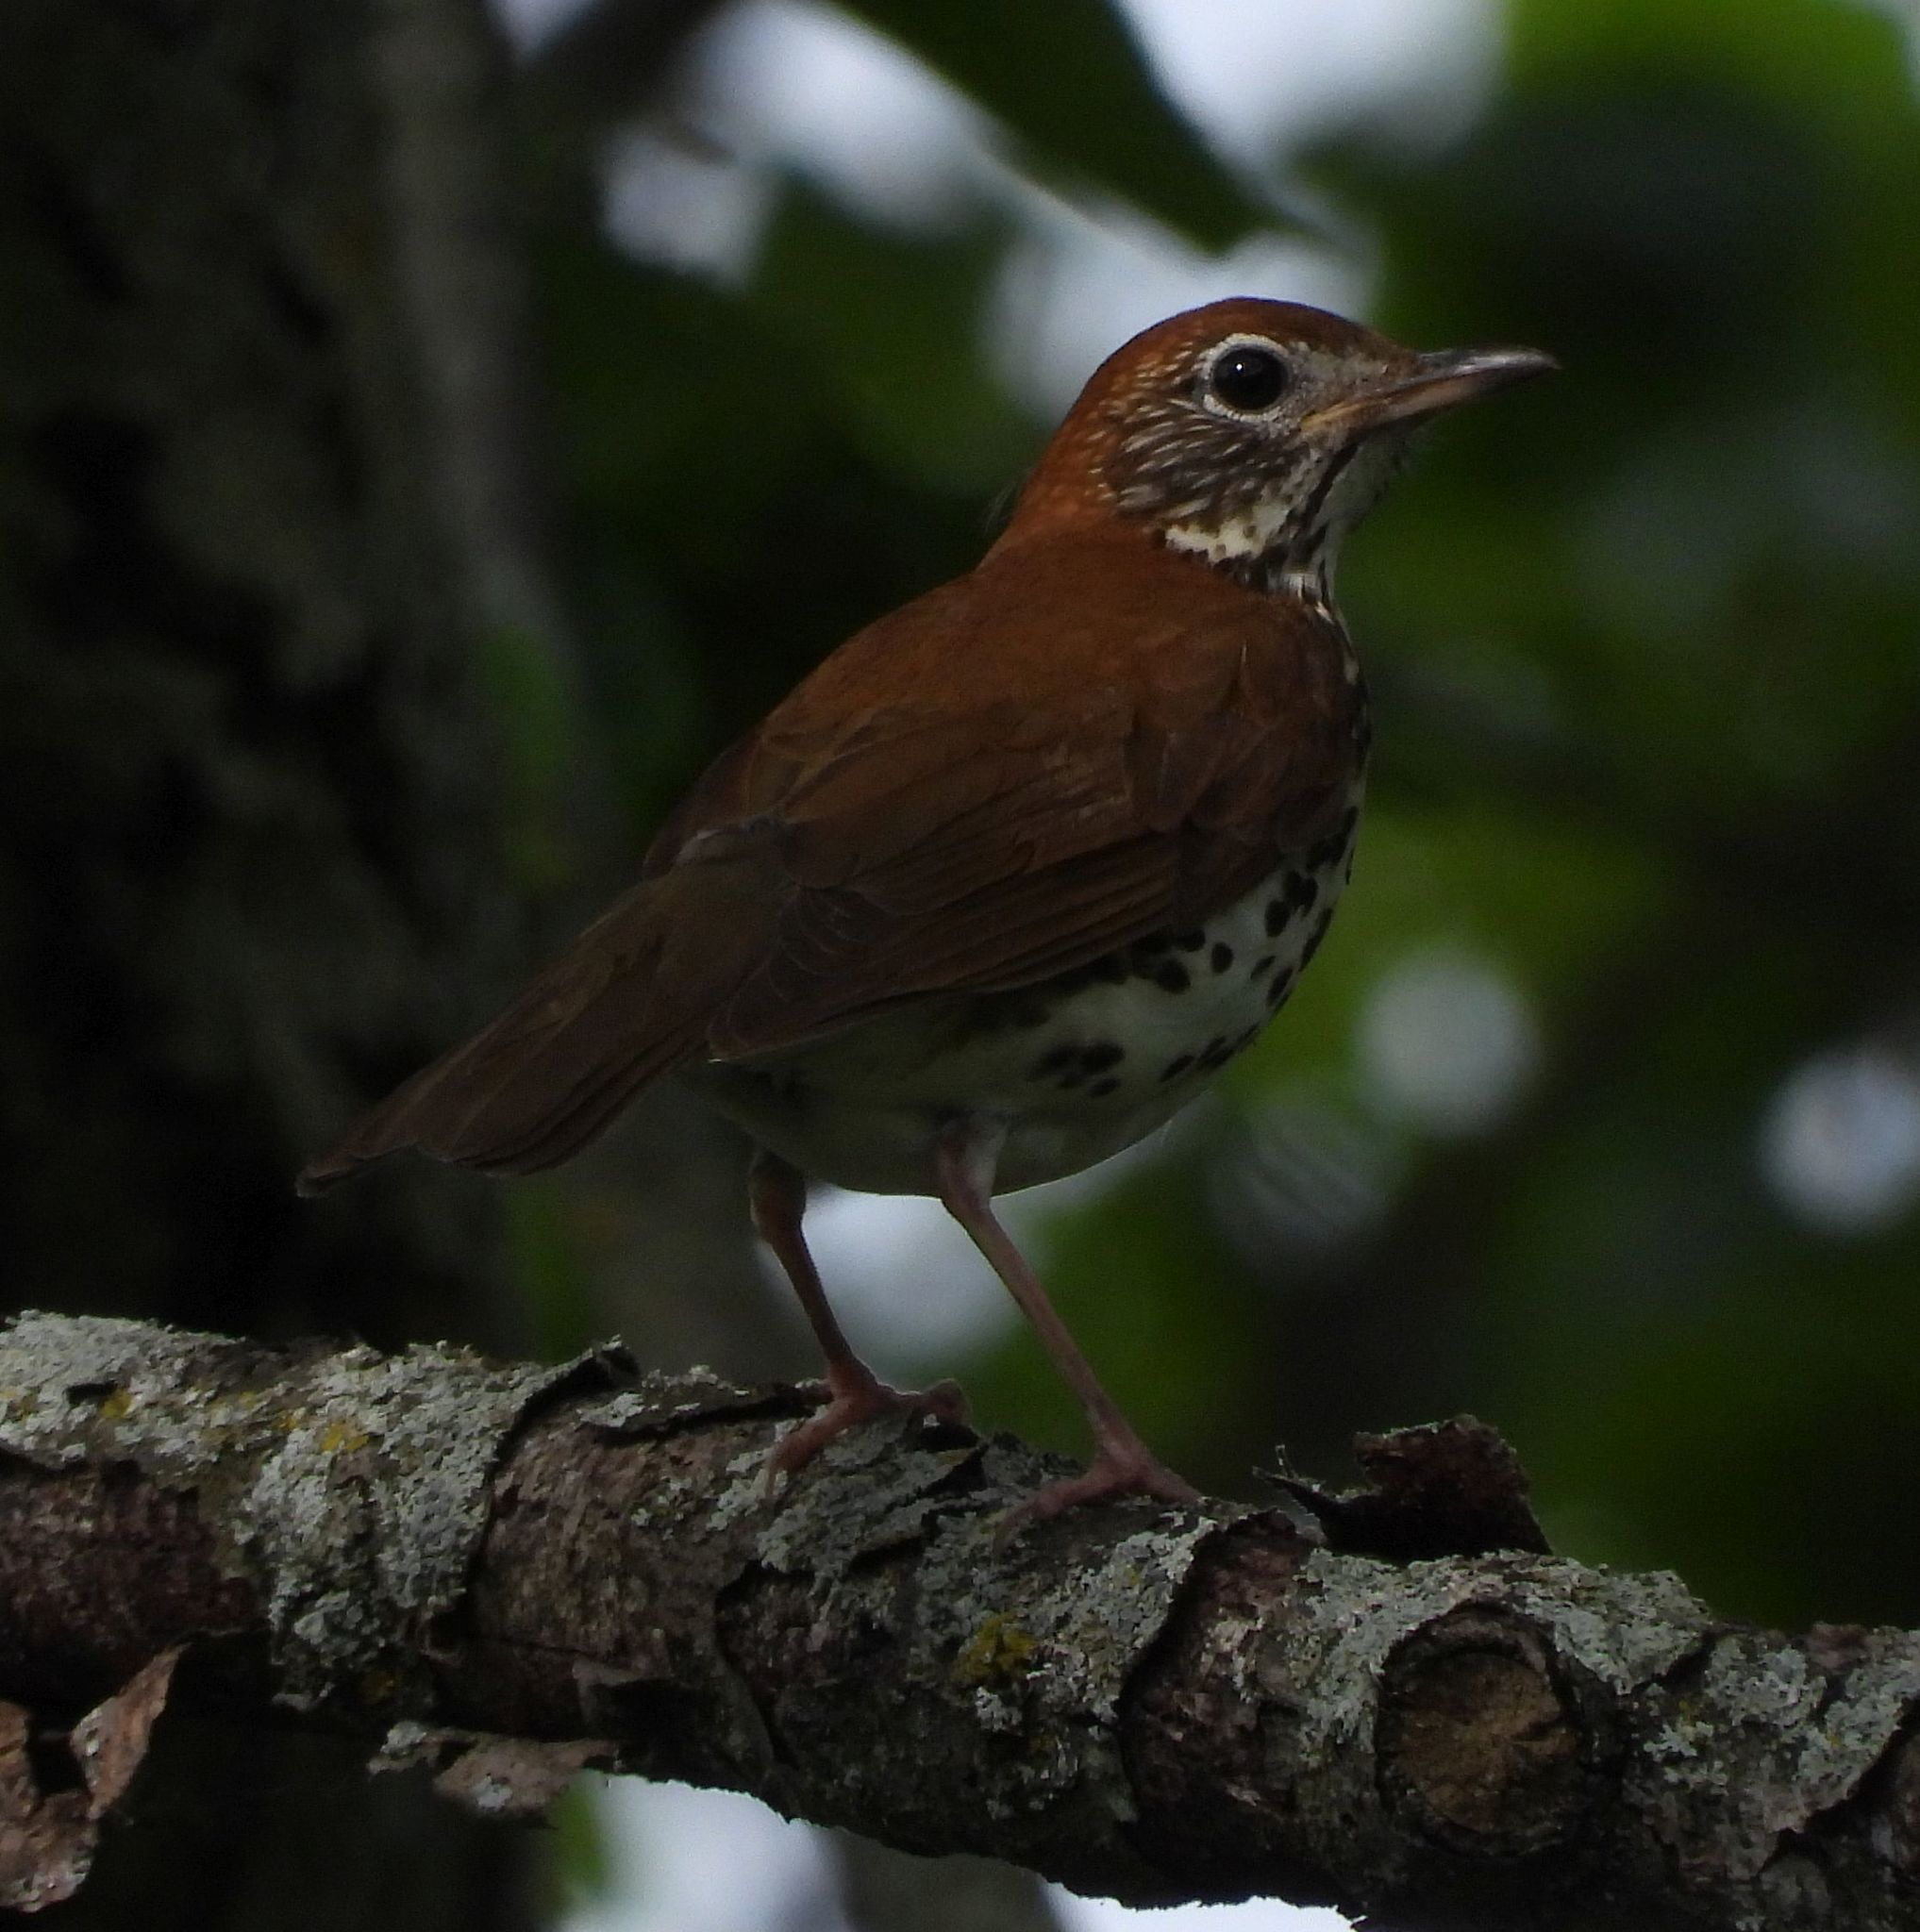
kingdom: Animalia
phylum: Chordata
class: Aves
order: Passeriformes
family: Turdidae
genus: Hylocichla
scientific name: Hylocichla mustelina
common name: Wood thrush
